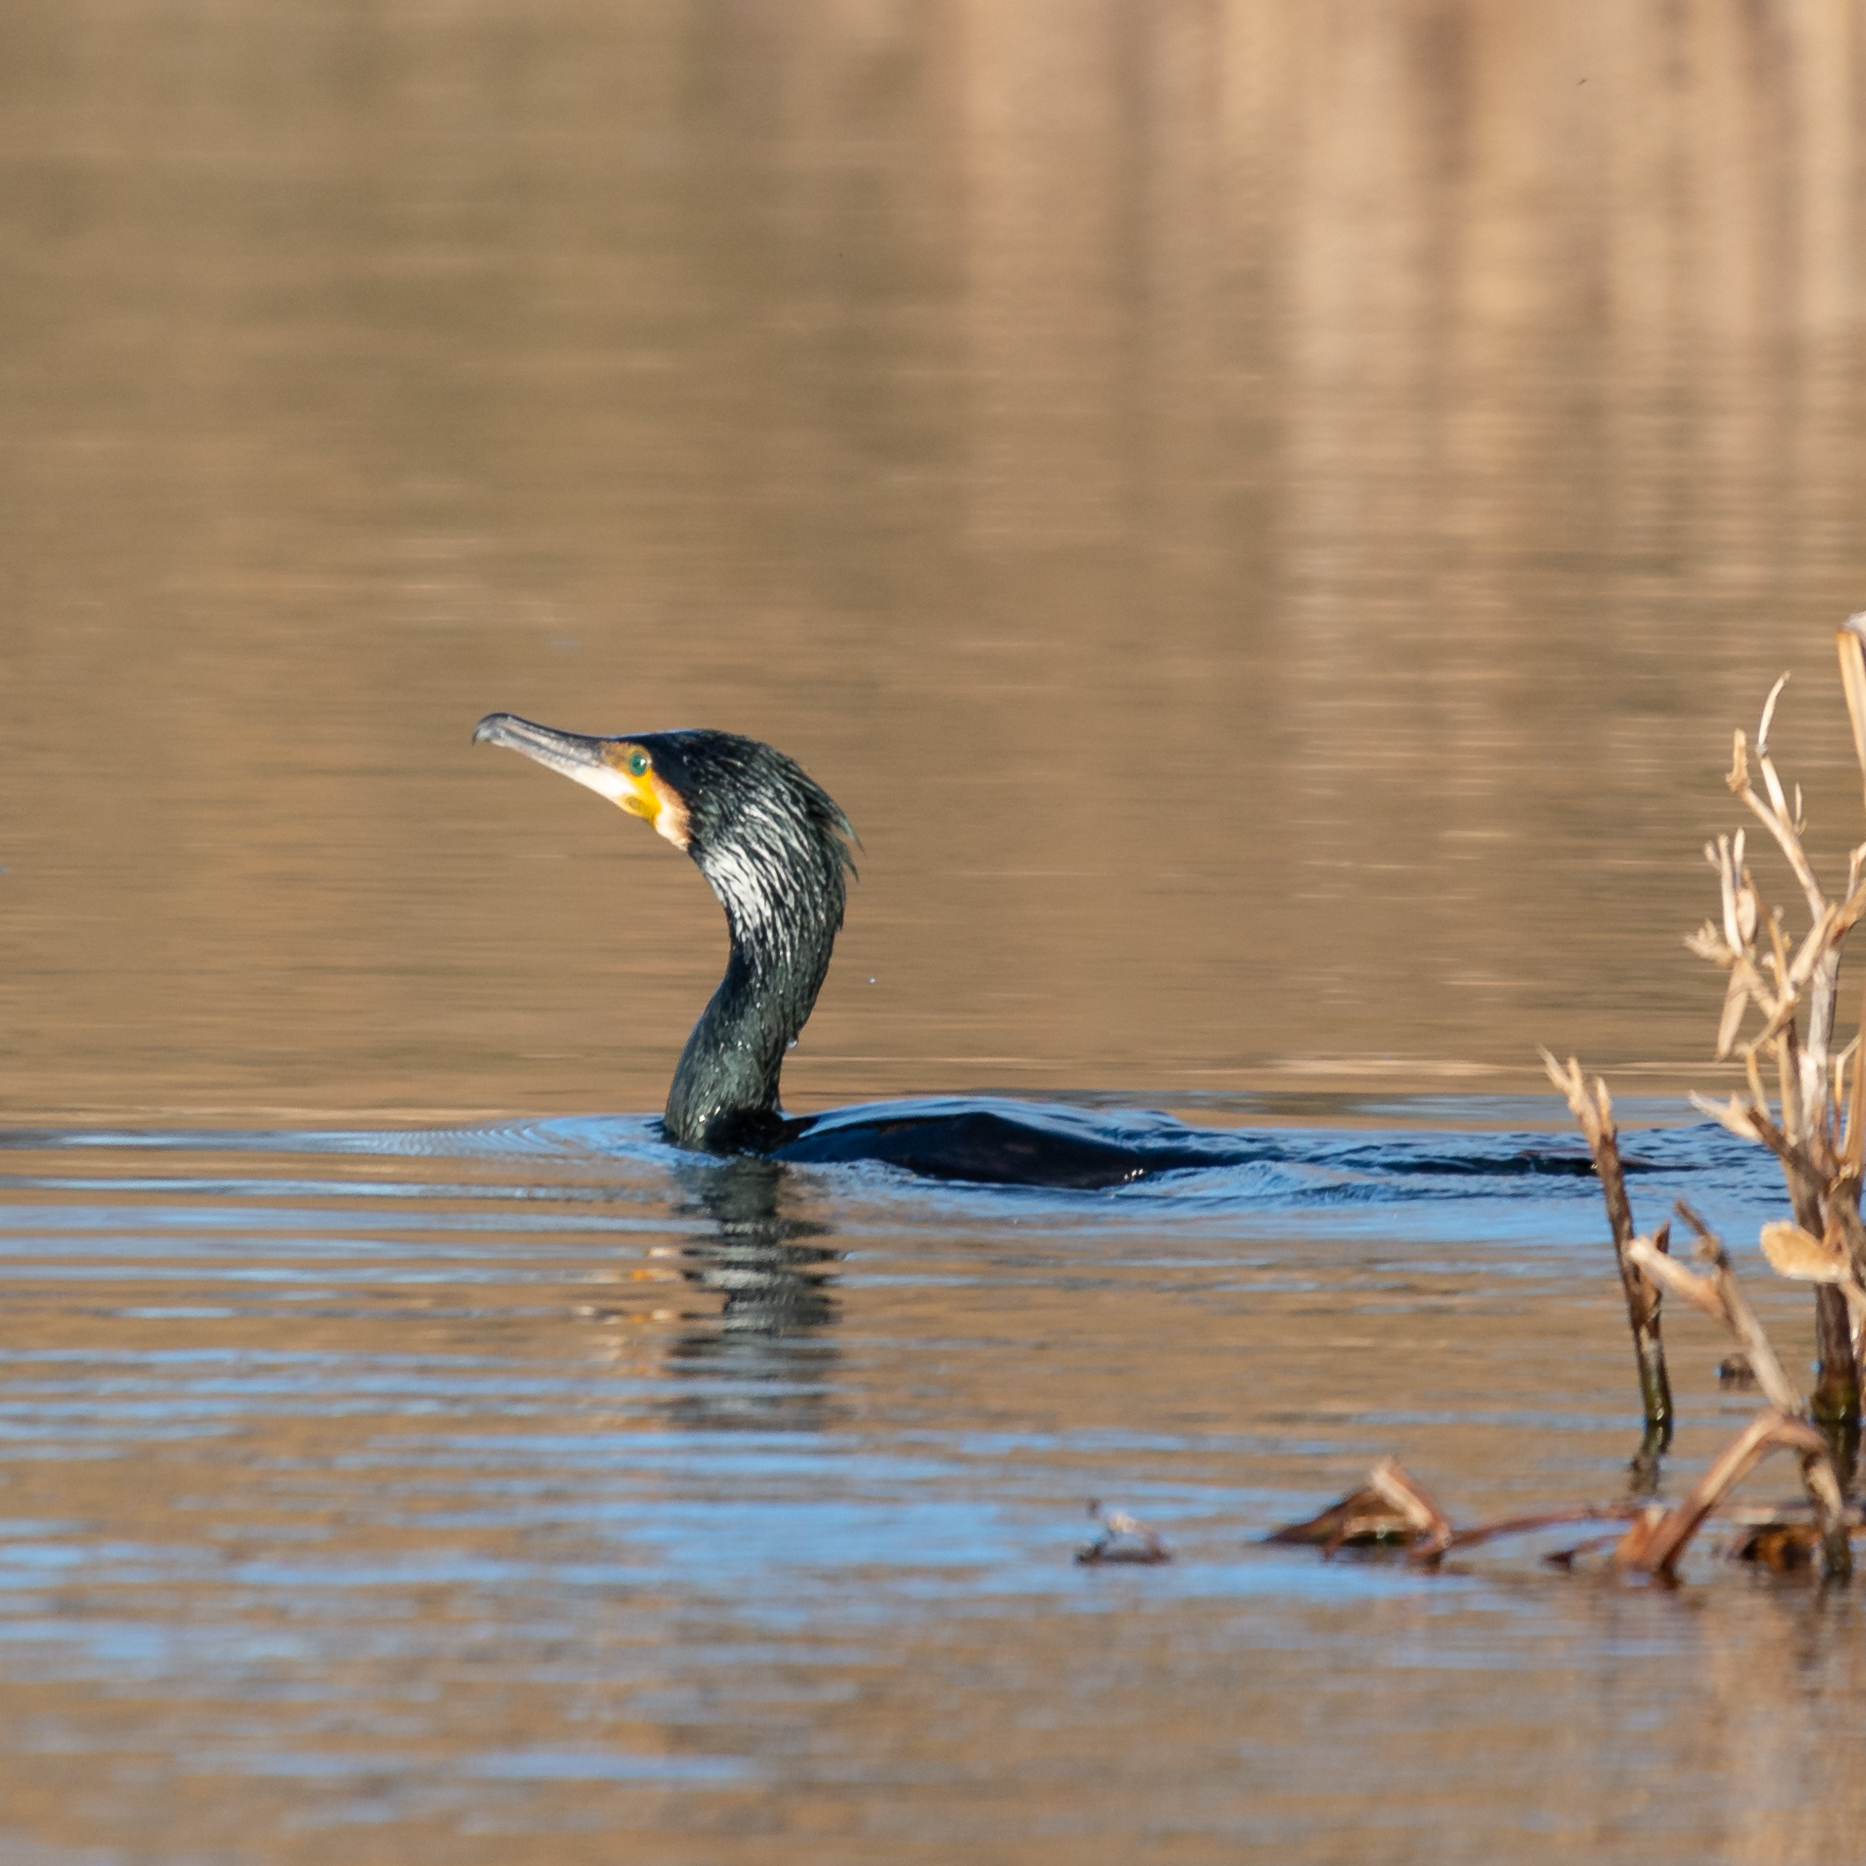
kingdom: Animalia
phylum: Chordata
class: Aves
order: Suliformes
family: Phalacrocoracidae
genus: Phalacrocorax
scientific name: Phalacrocorax carbo
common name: Great cormorant
